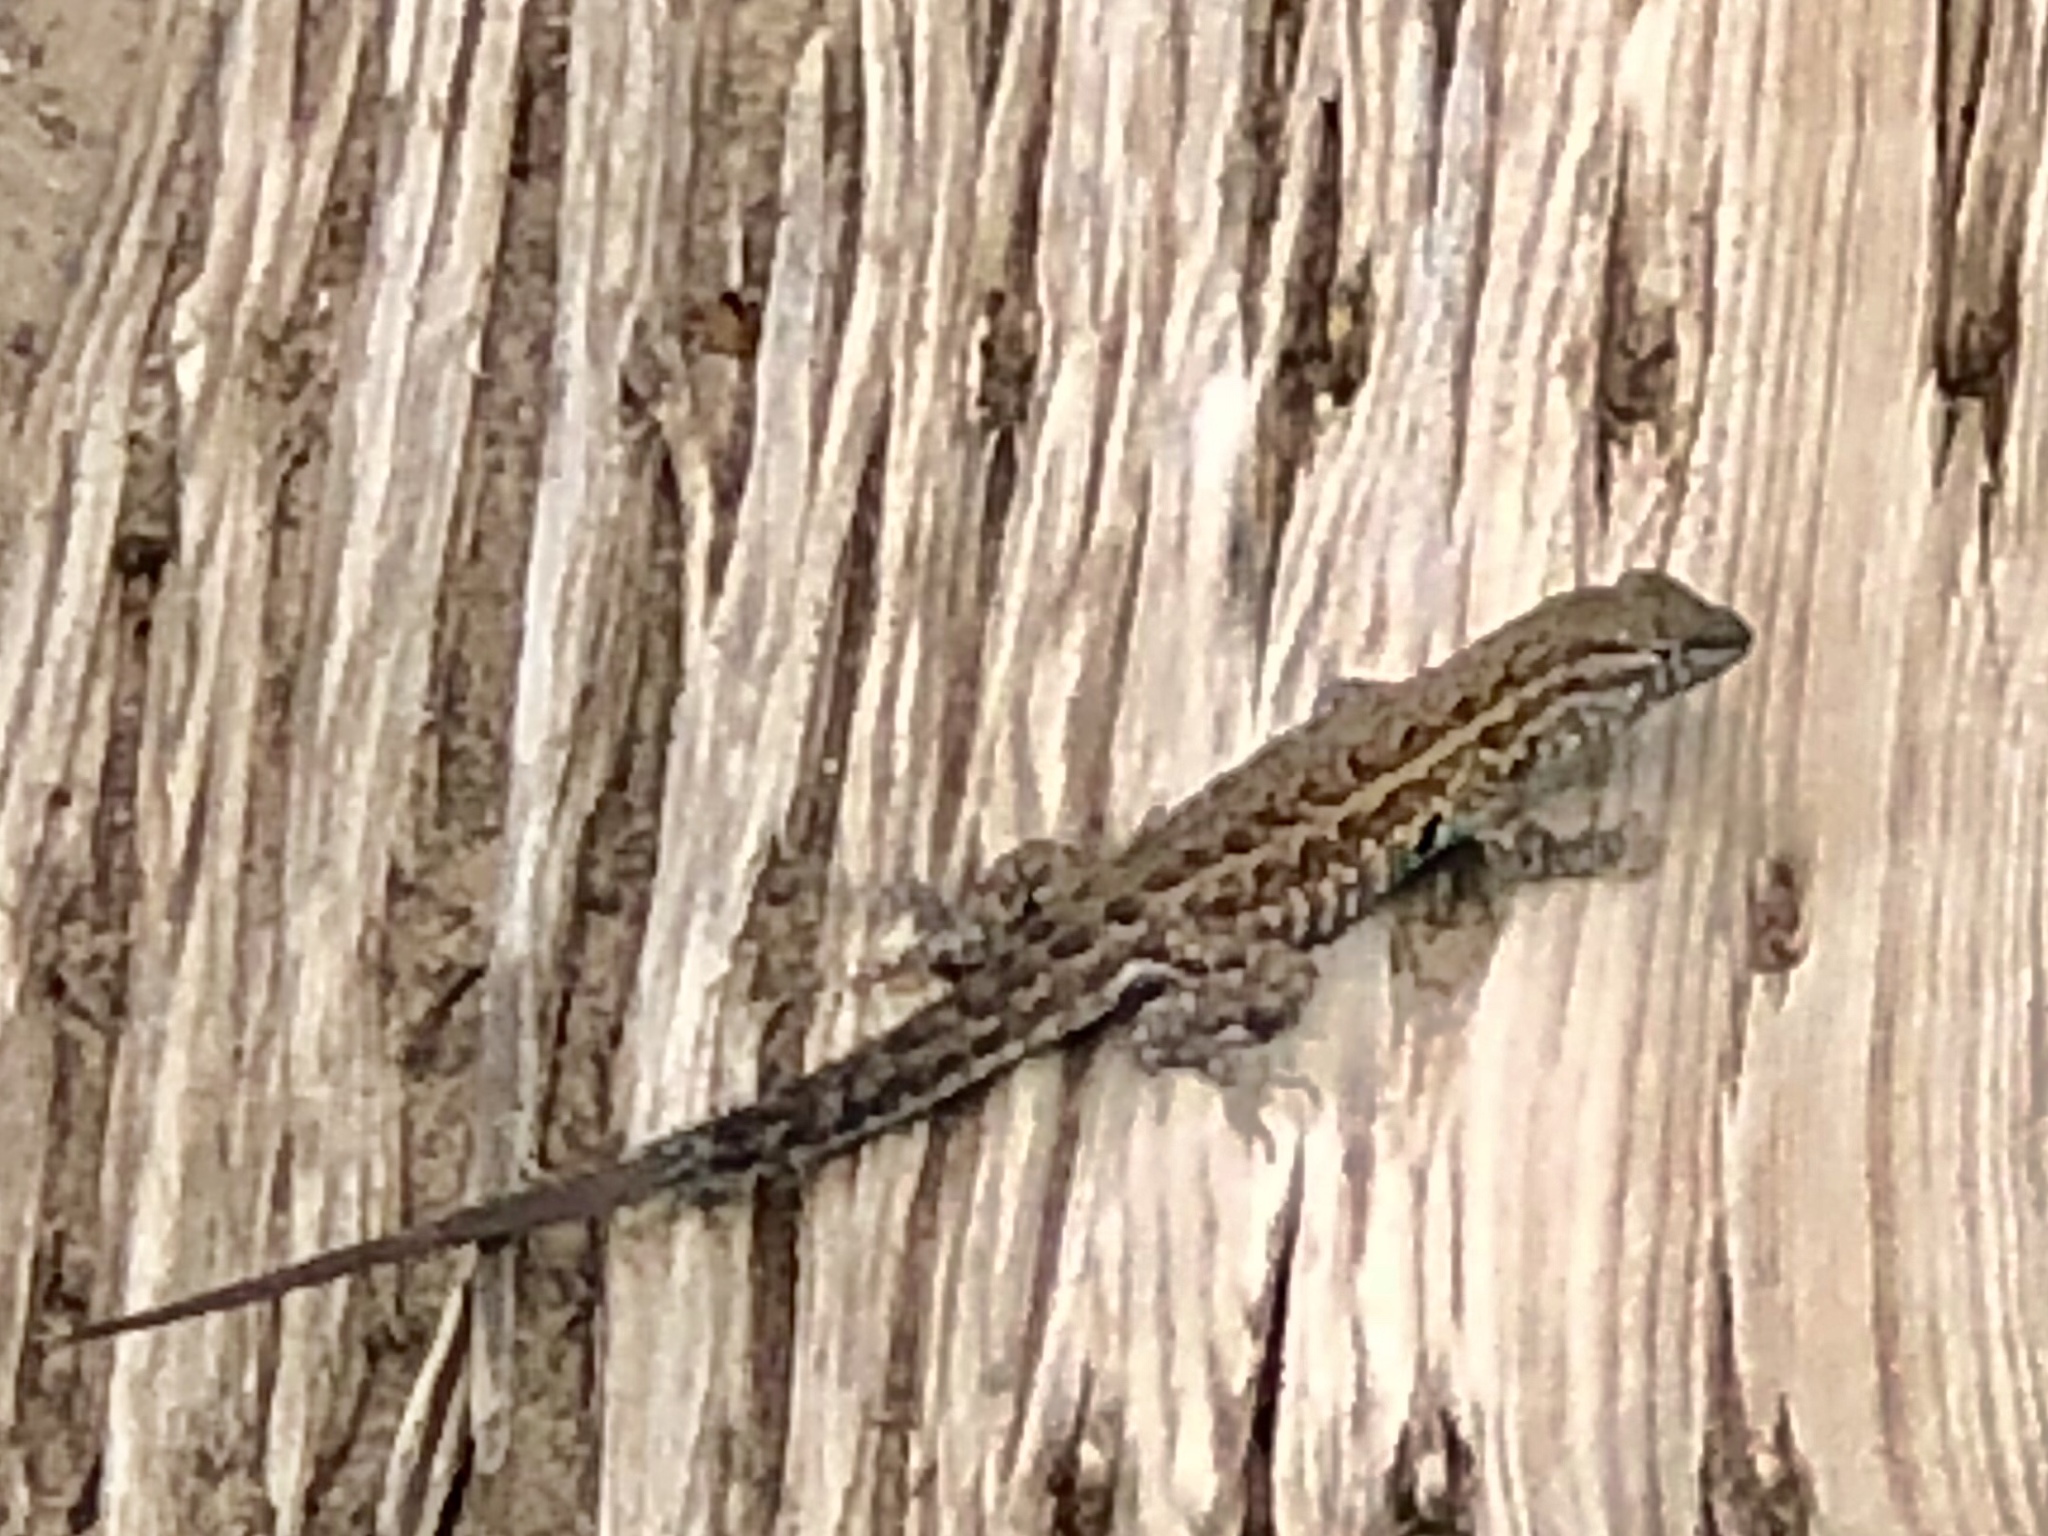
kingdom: Animalia
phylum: Chordata
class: Squamata
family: Phrynosomatidae
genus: Uta
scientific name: Uta stansburiana
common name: Side-blotched lizard
